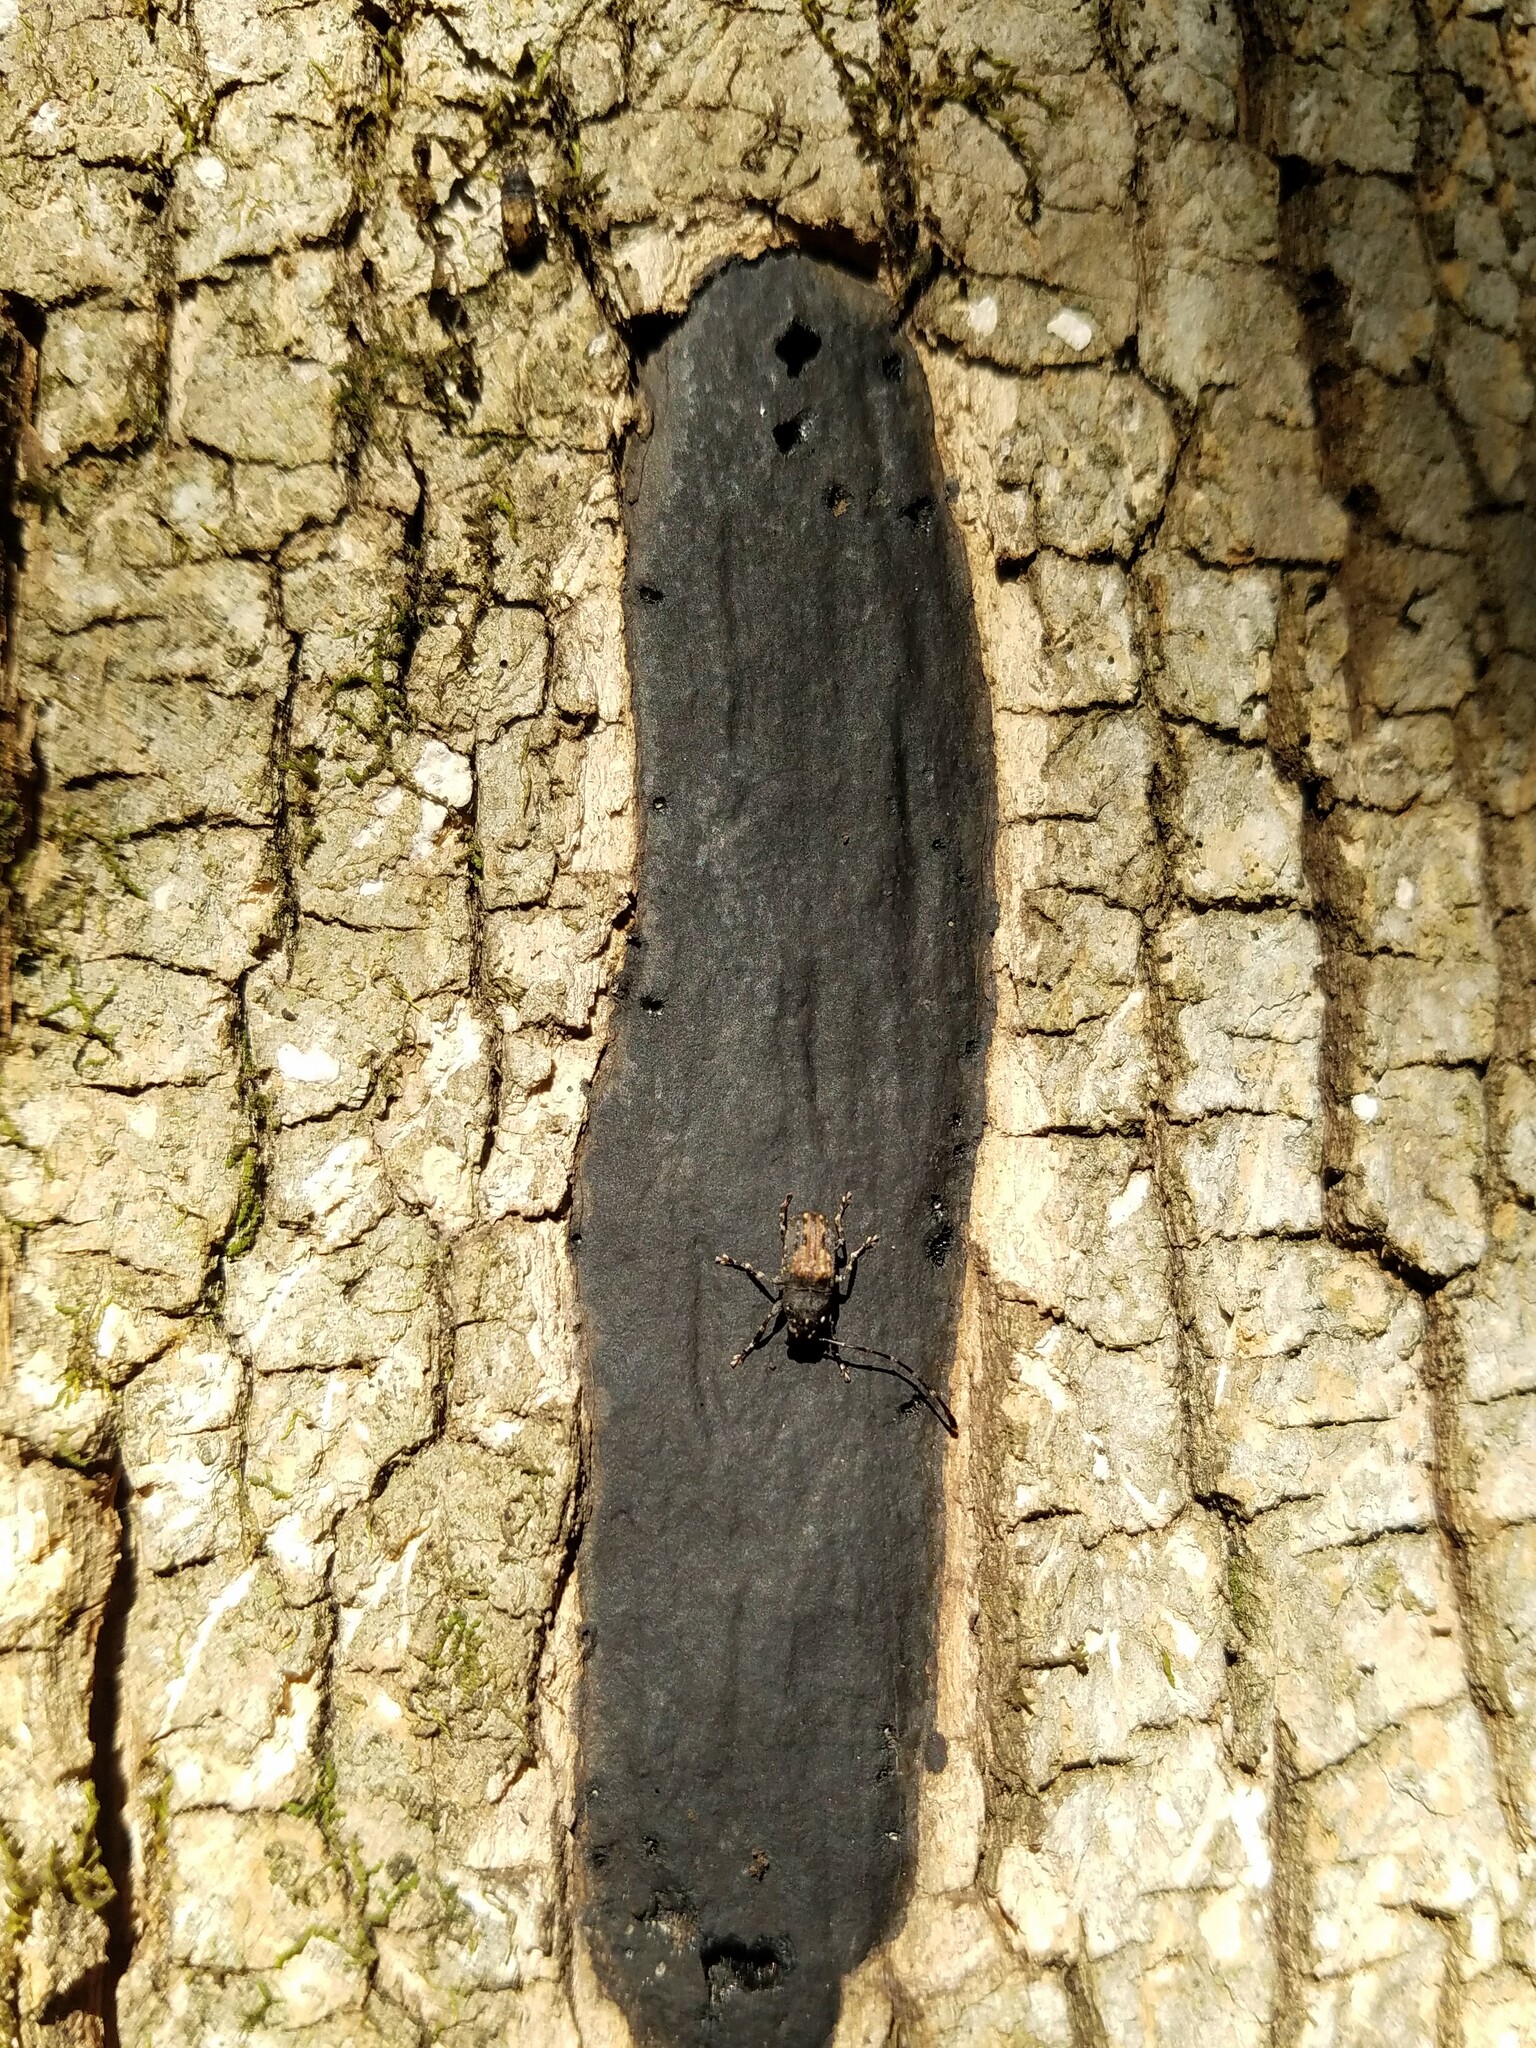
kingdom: Animalia
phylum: Arthropoda
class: Insecta
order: Coleoptera
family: Anthribidae
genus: Piesocorynus
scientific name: Piesocorynus plagifer
